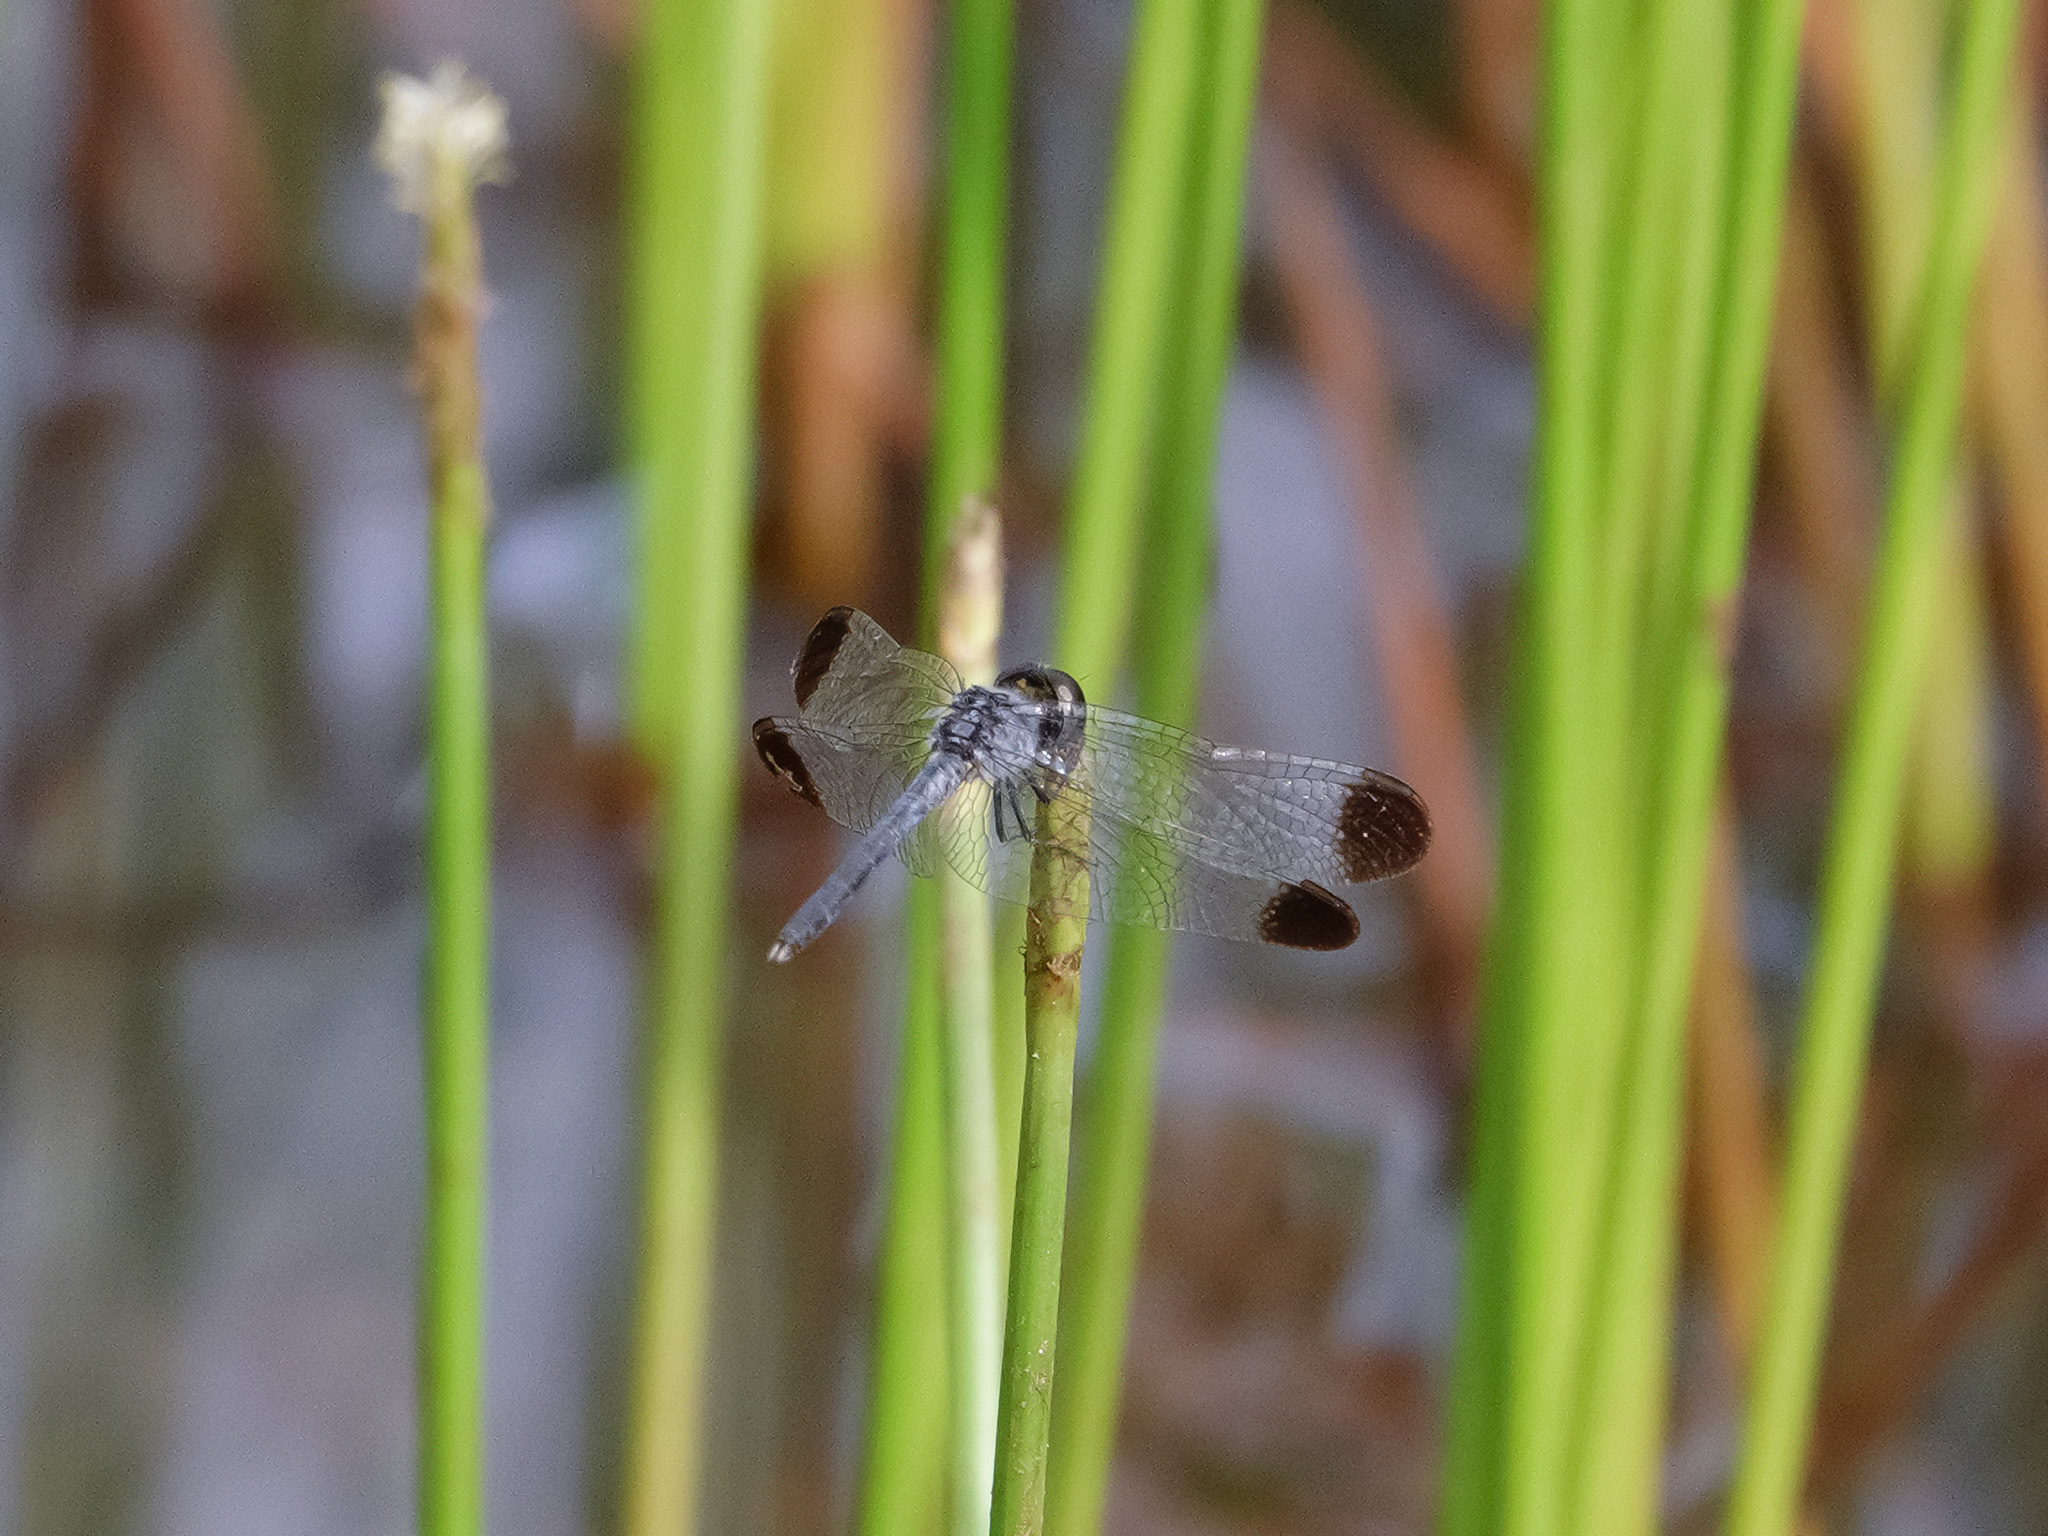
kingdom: Animalia
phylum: Arthropoda
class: Insecta
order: Odonata
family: Libellulidae
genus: Diplacodes
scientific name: Diplacodes nebulosa
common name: Black-tipped percher
